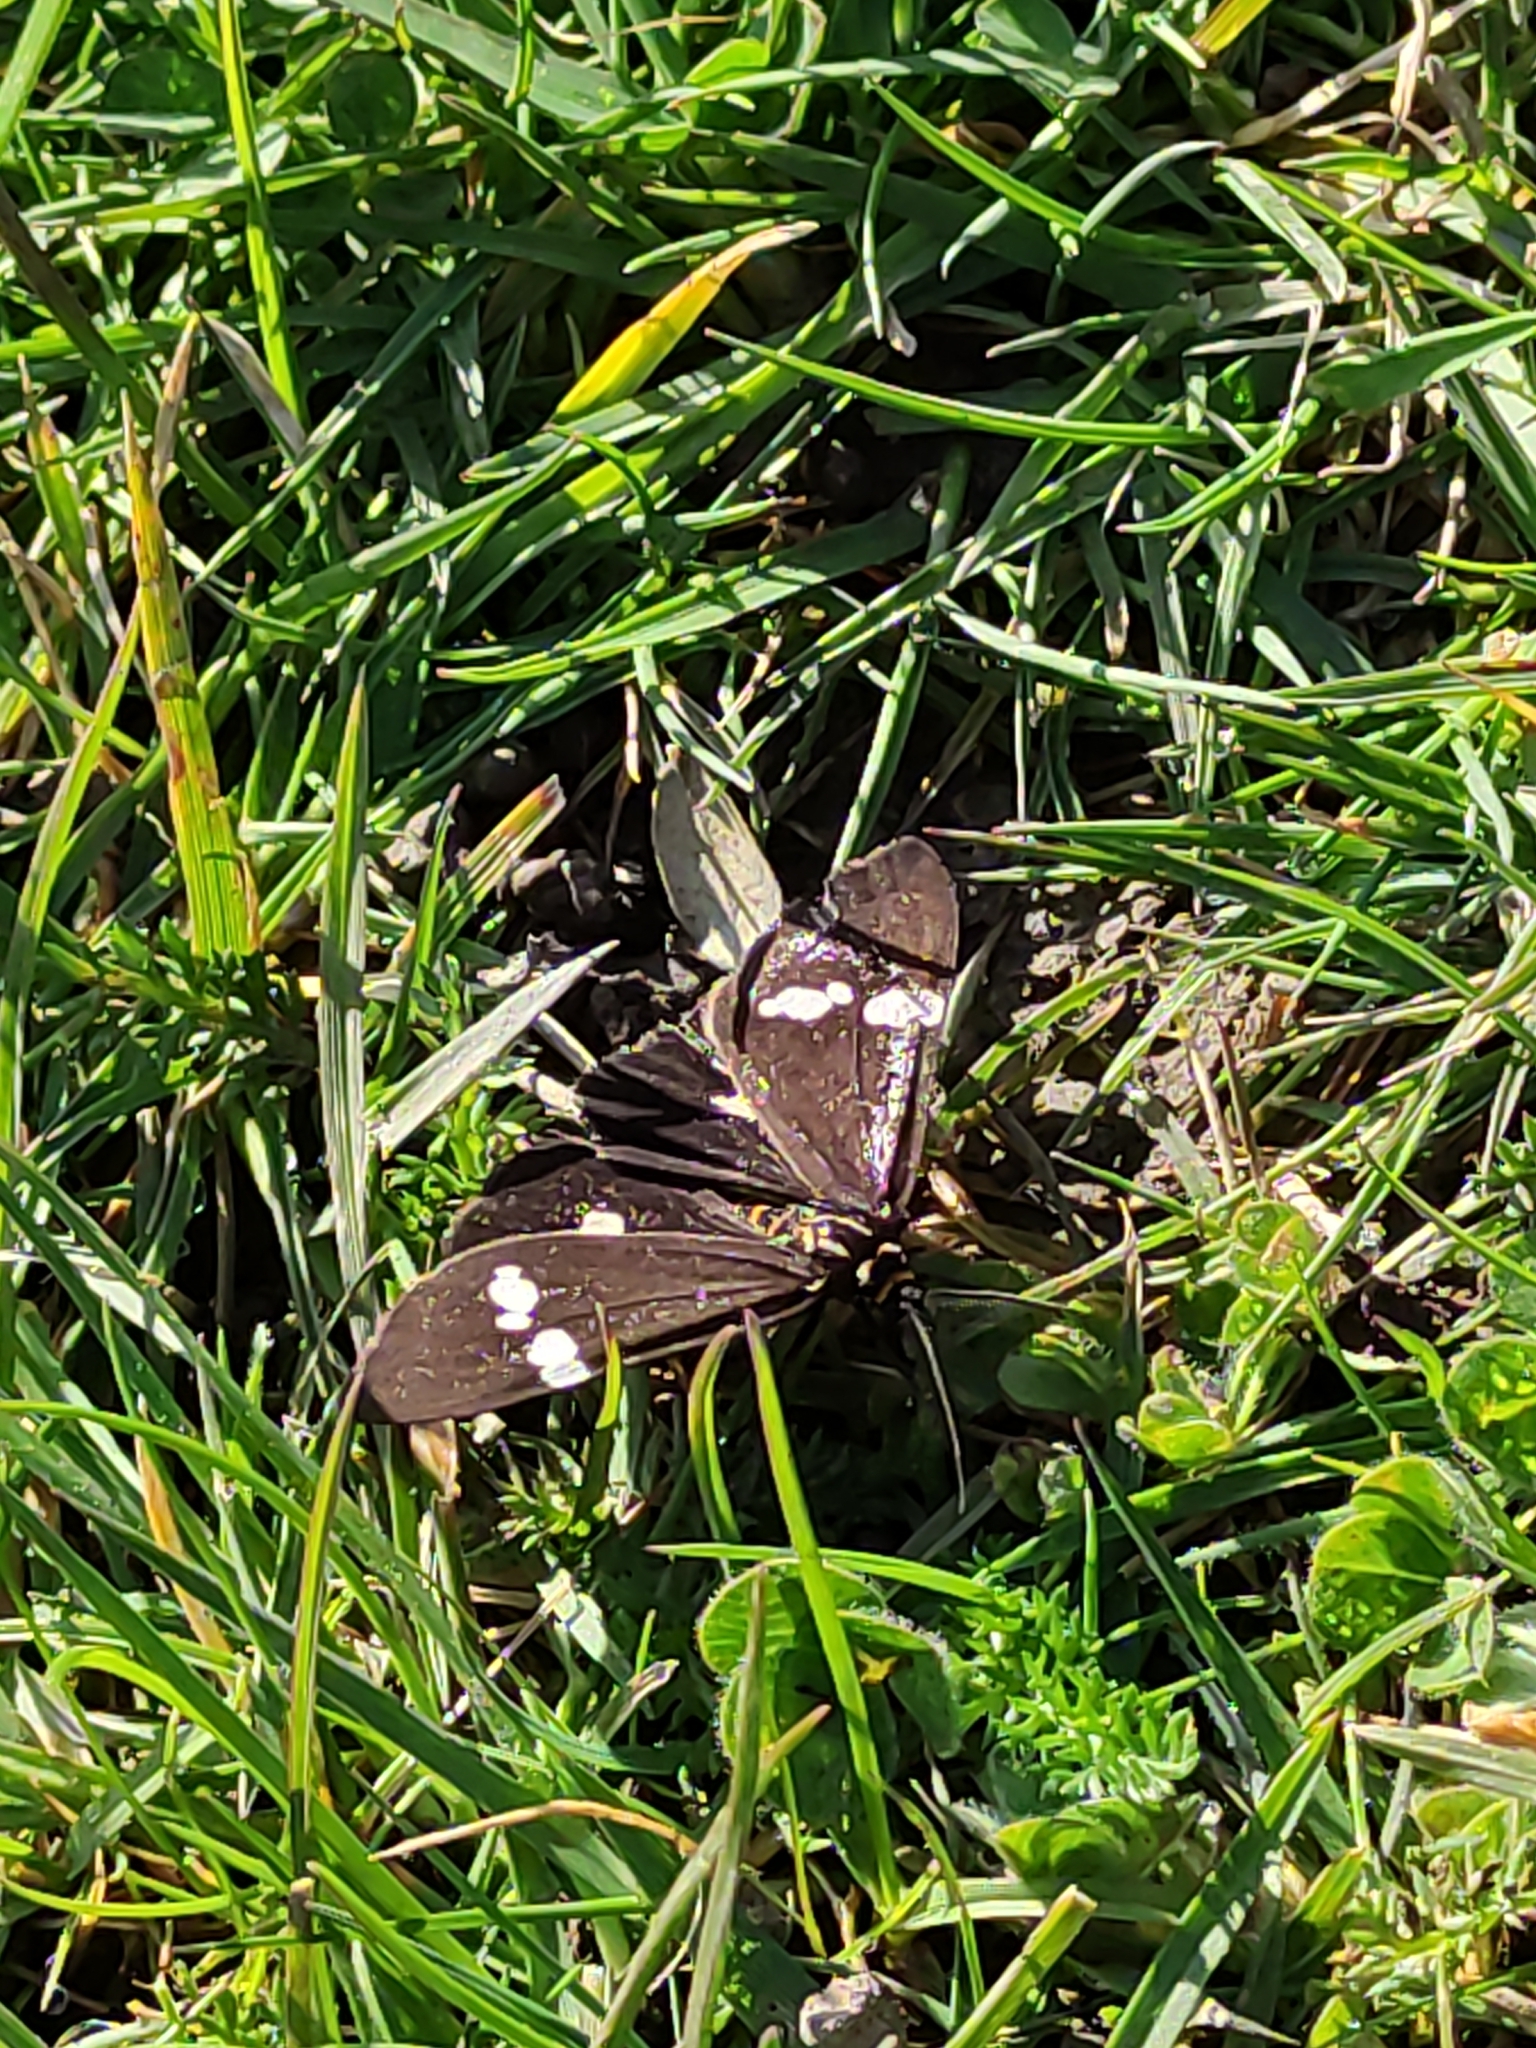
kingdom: Animalia
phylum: Arthropoda
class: Insecta
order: Lepidoptera
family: Erebidae
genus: Nyctemera
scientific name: Nyctemera annulatum
